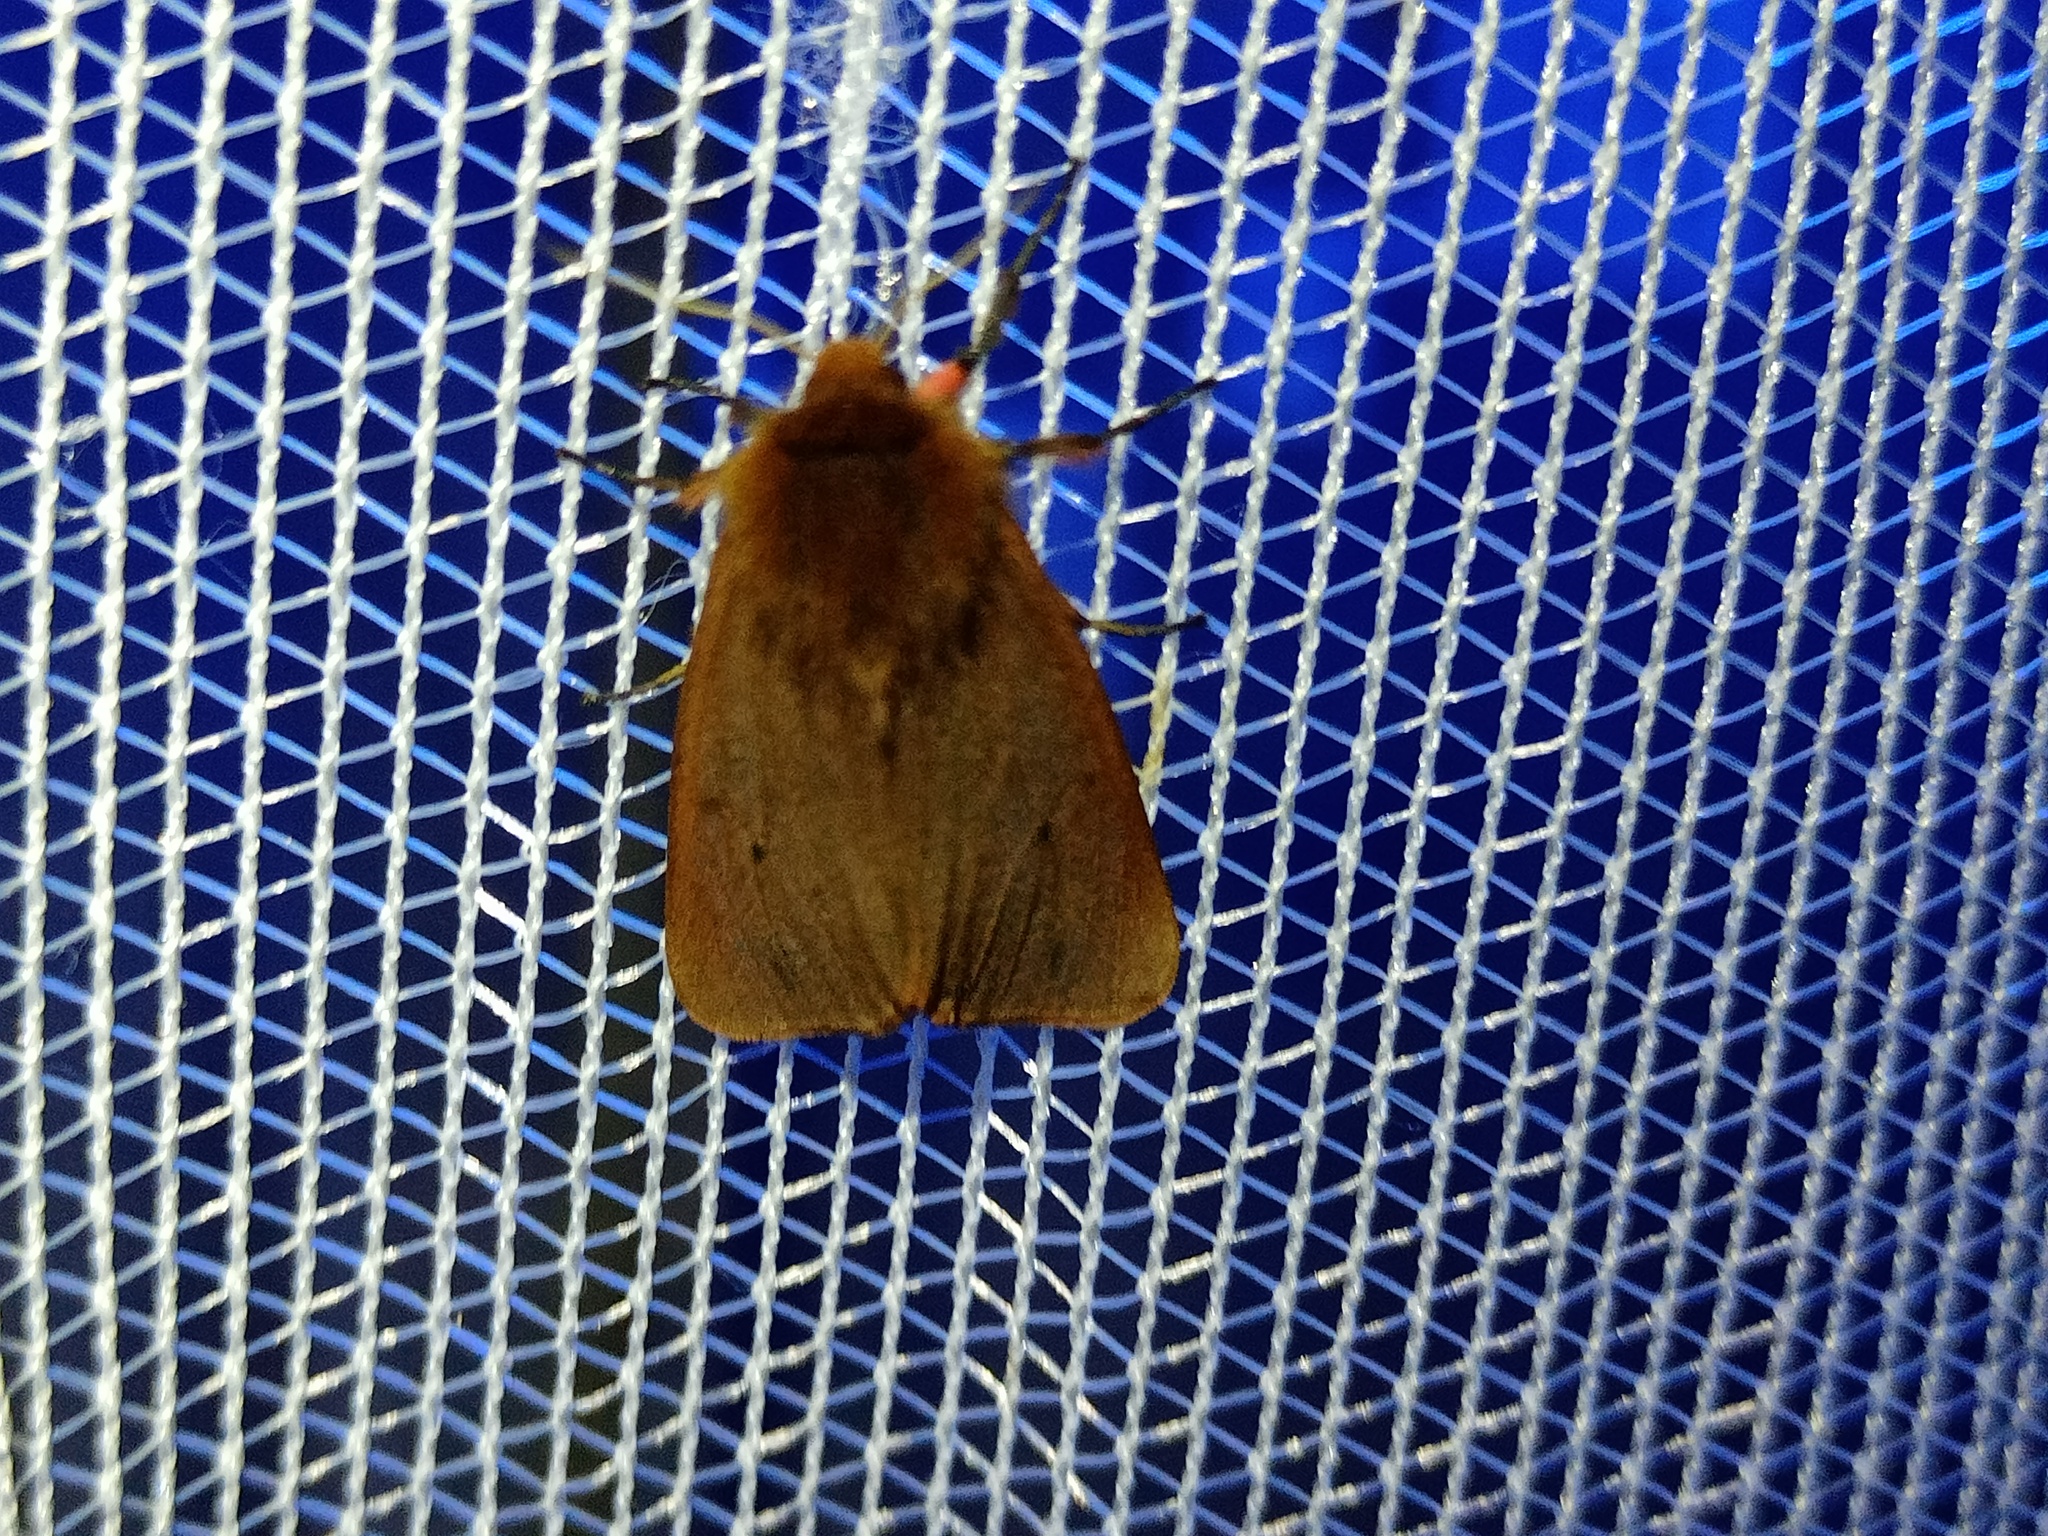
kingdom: Animalia
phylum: Arthropoda
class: Insecta
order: Lepidoptera
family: Erebidae
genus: Phragmatobia
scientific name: Phragmatobia fuliginosa
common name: Ruby tiger
